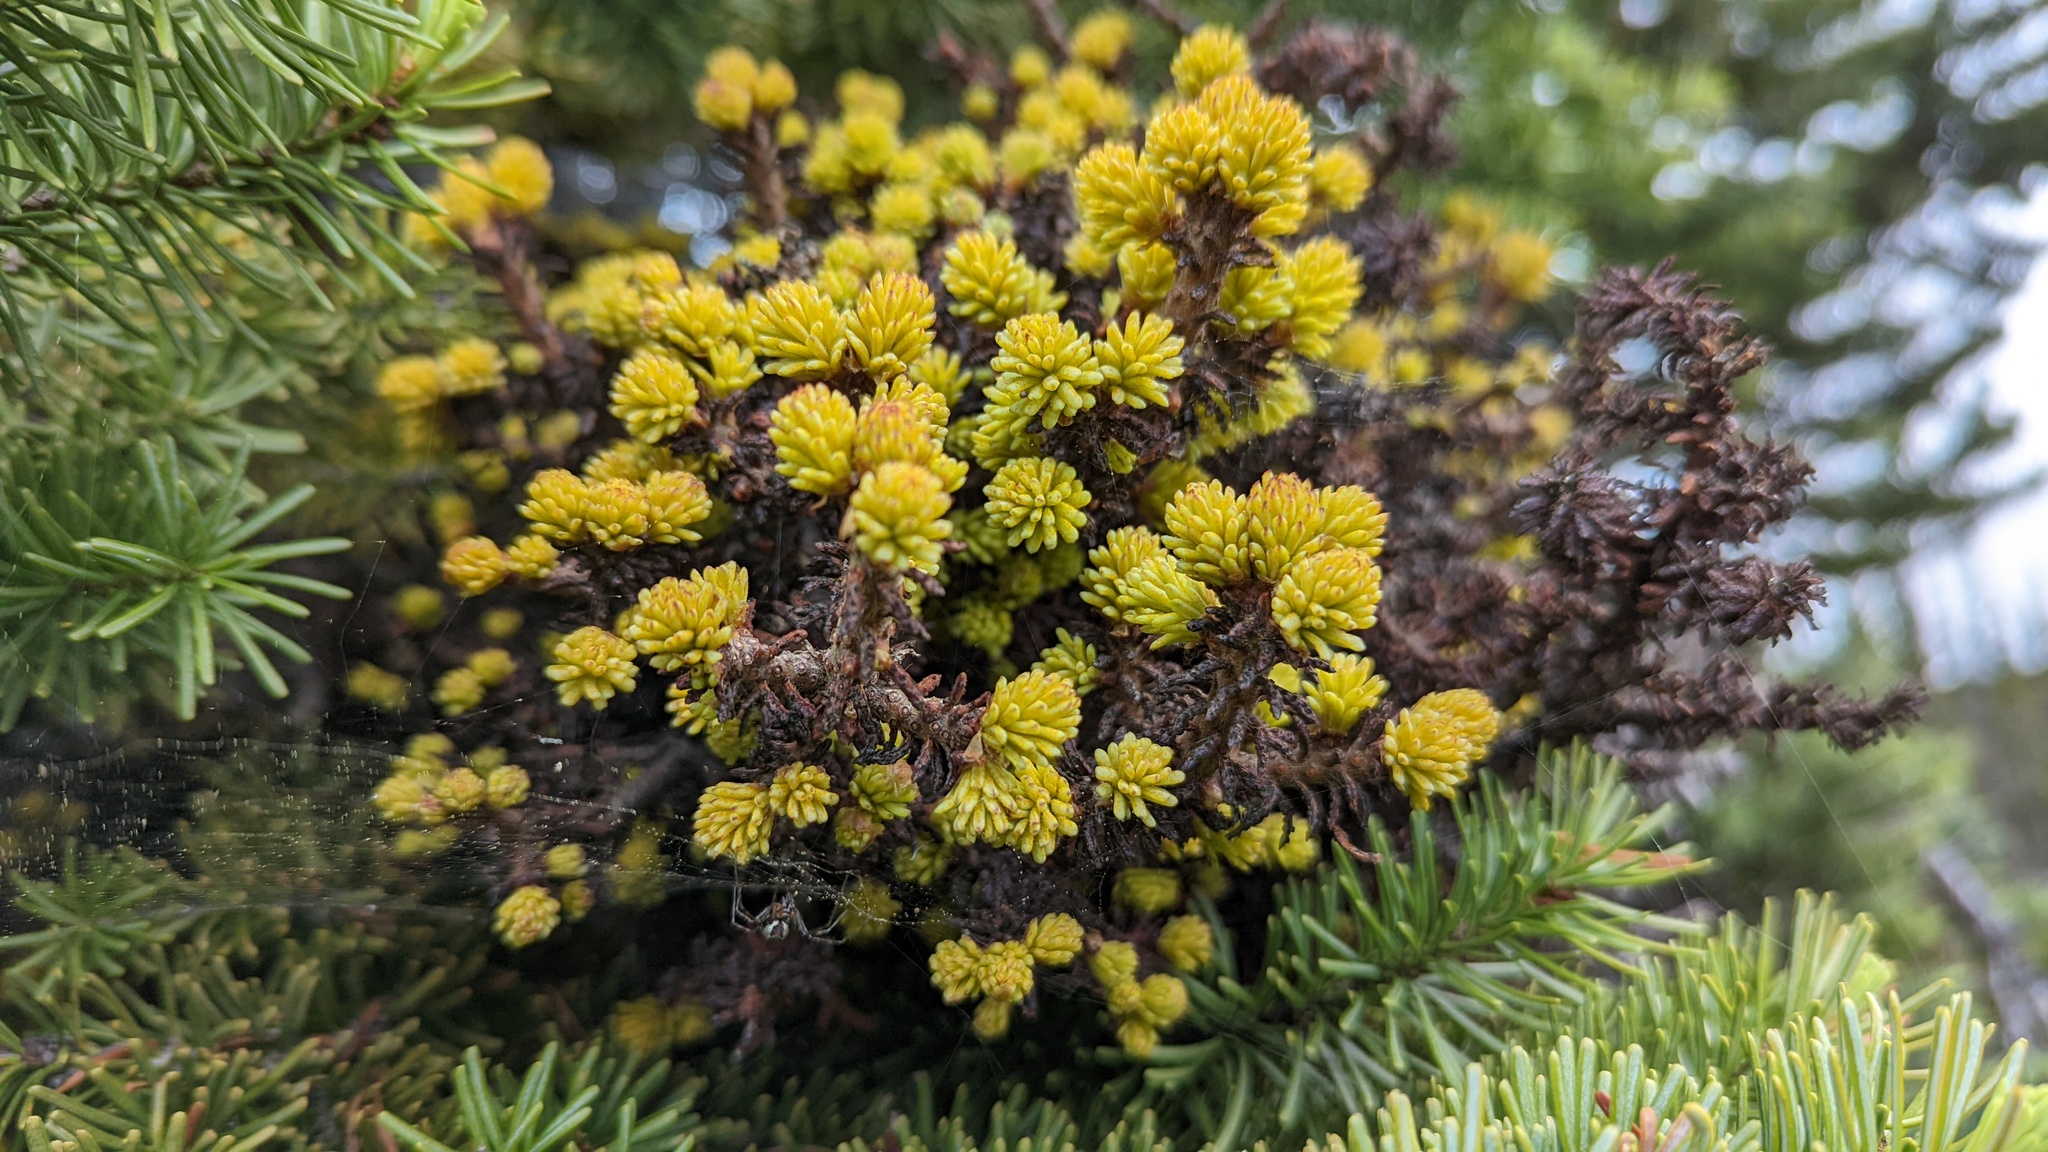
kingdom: Fungi
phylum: Basidiomycota
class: Pucciniomycetes
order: Pucciniales
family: Coleosporiaceae
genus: Chrysomyxa
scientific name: Chrysomyxa arctostaphyli
